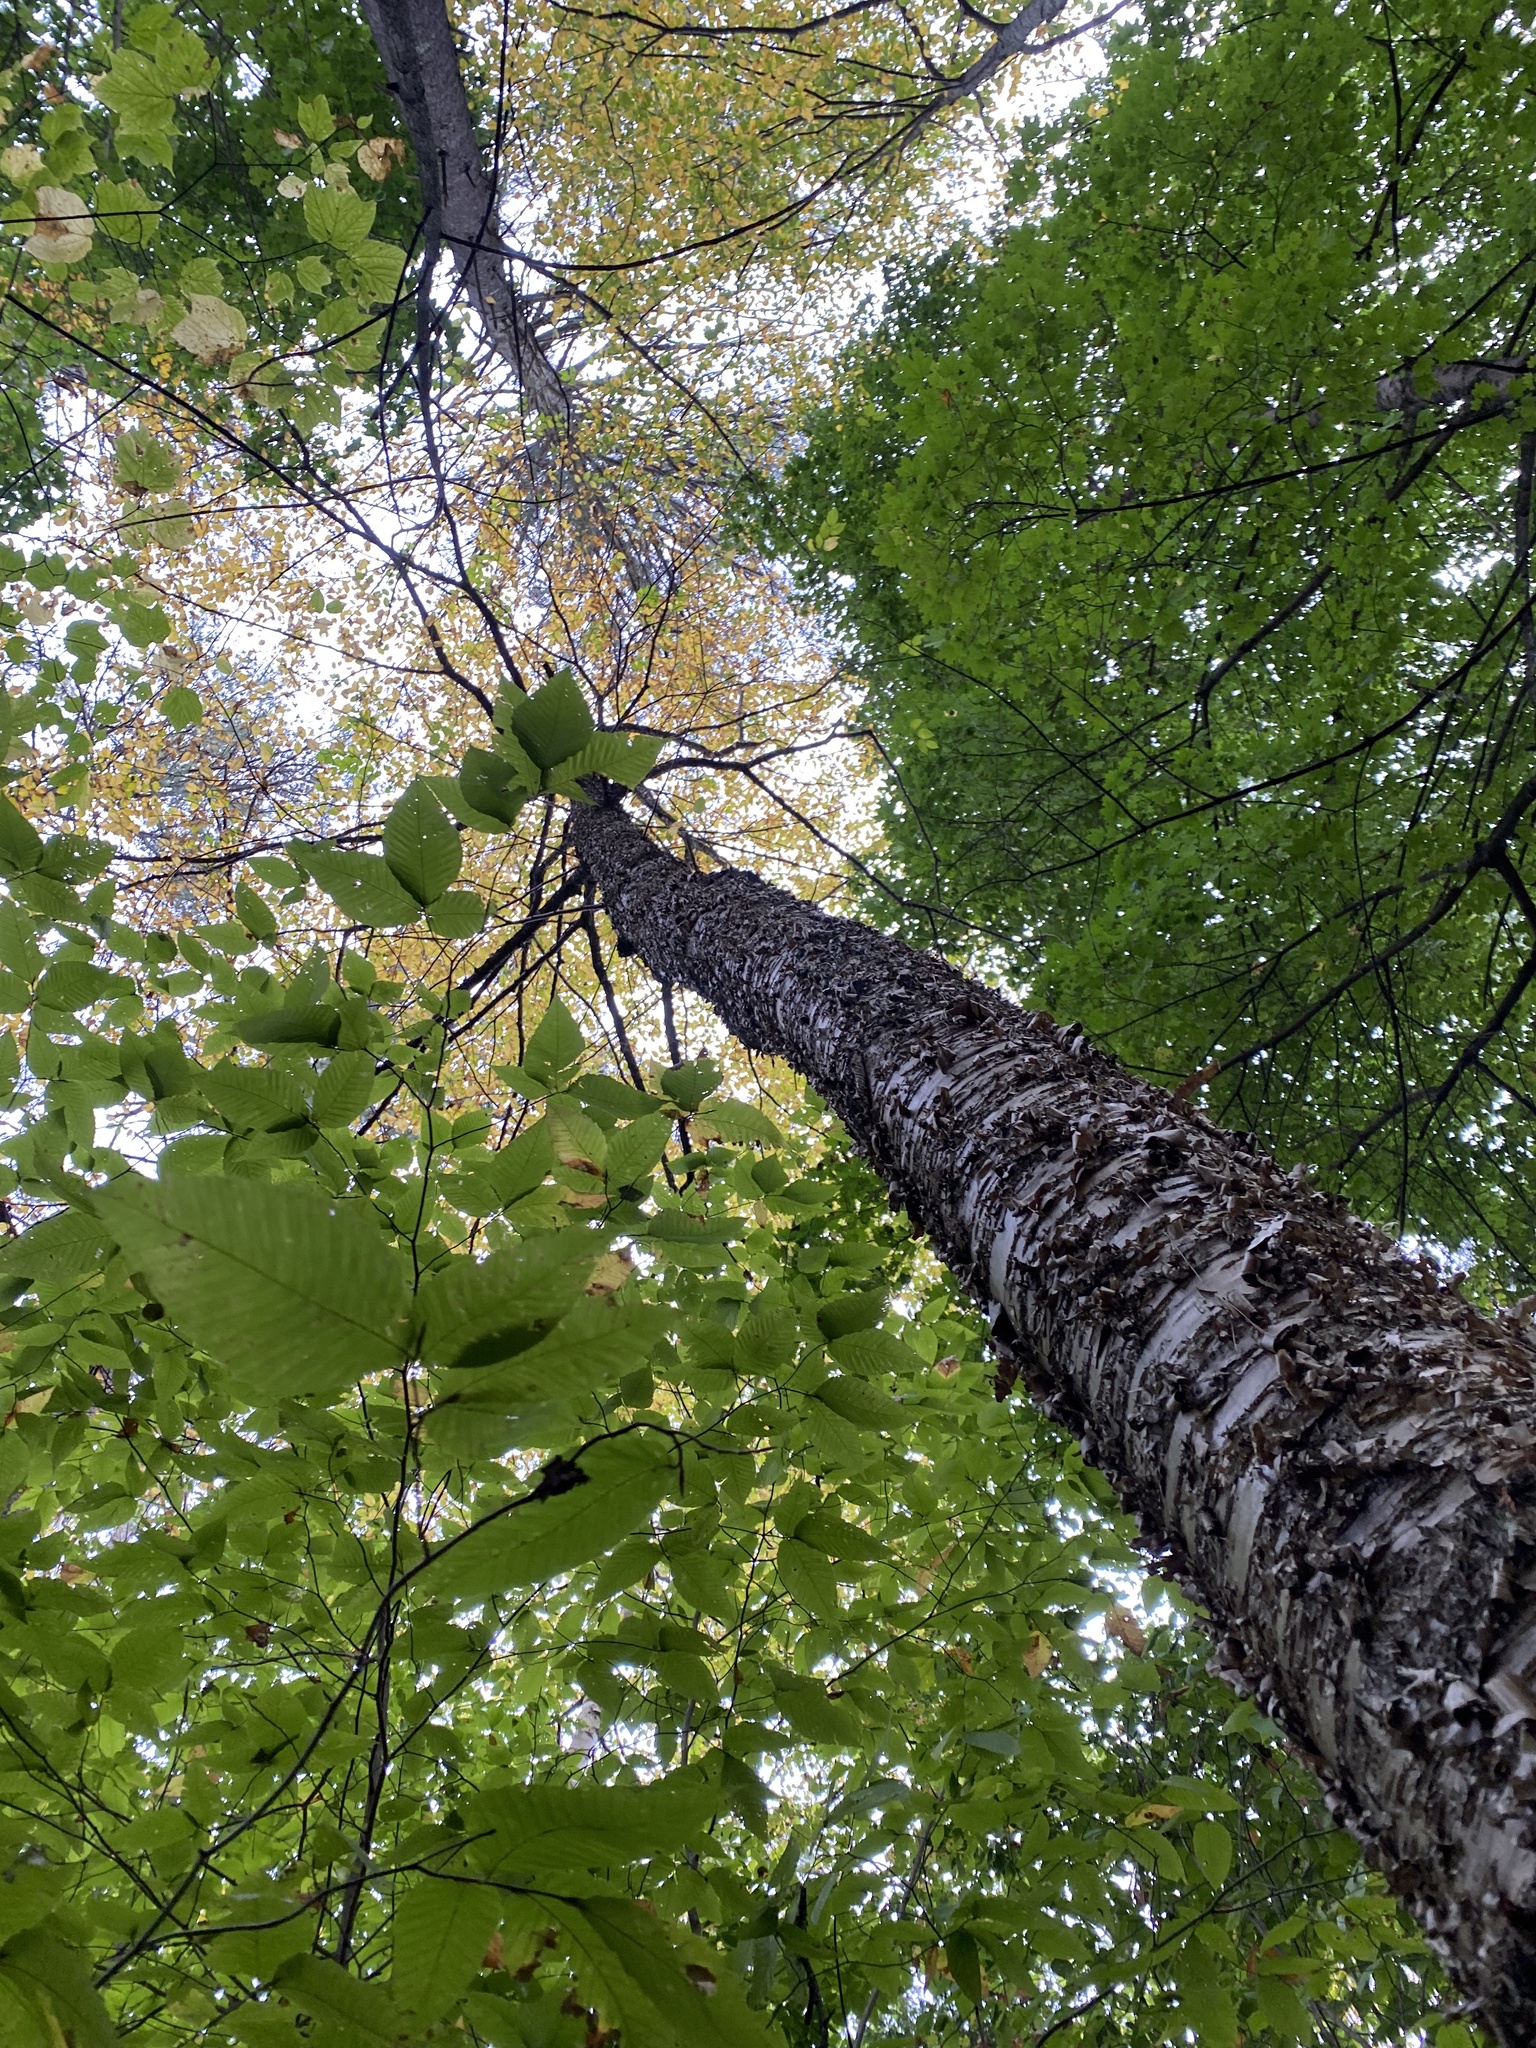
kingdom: Plantae
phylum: Tracheophyta
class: Magnoliopsida
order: Fagales
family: Betulaceae
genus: Betula
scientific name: Betula alleghaniensis
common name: Yellow birch
